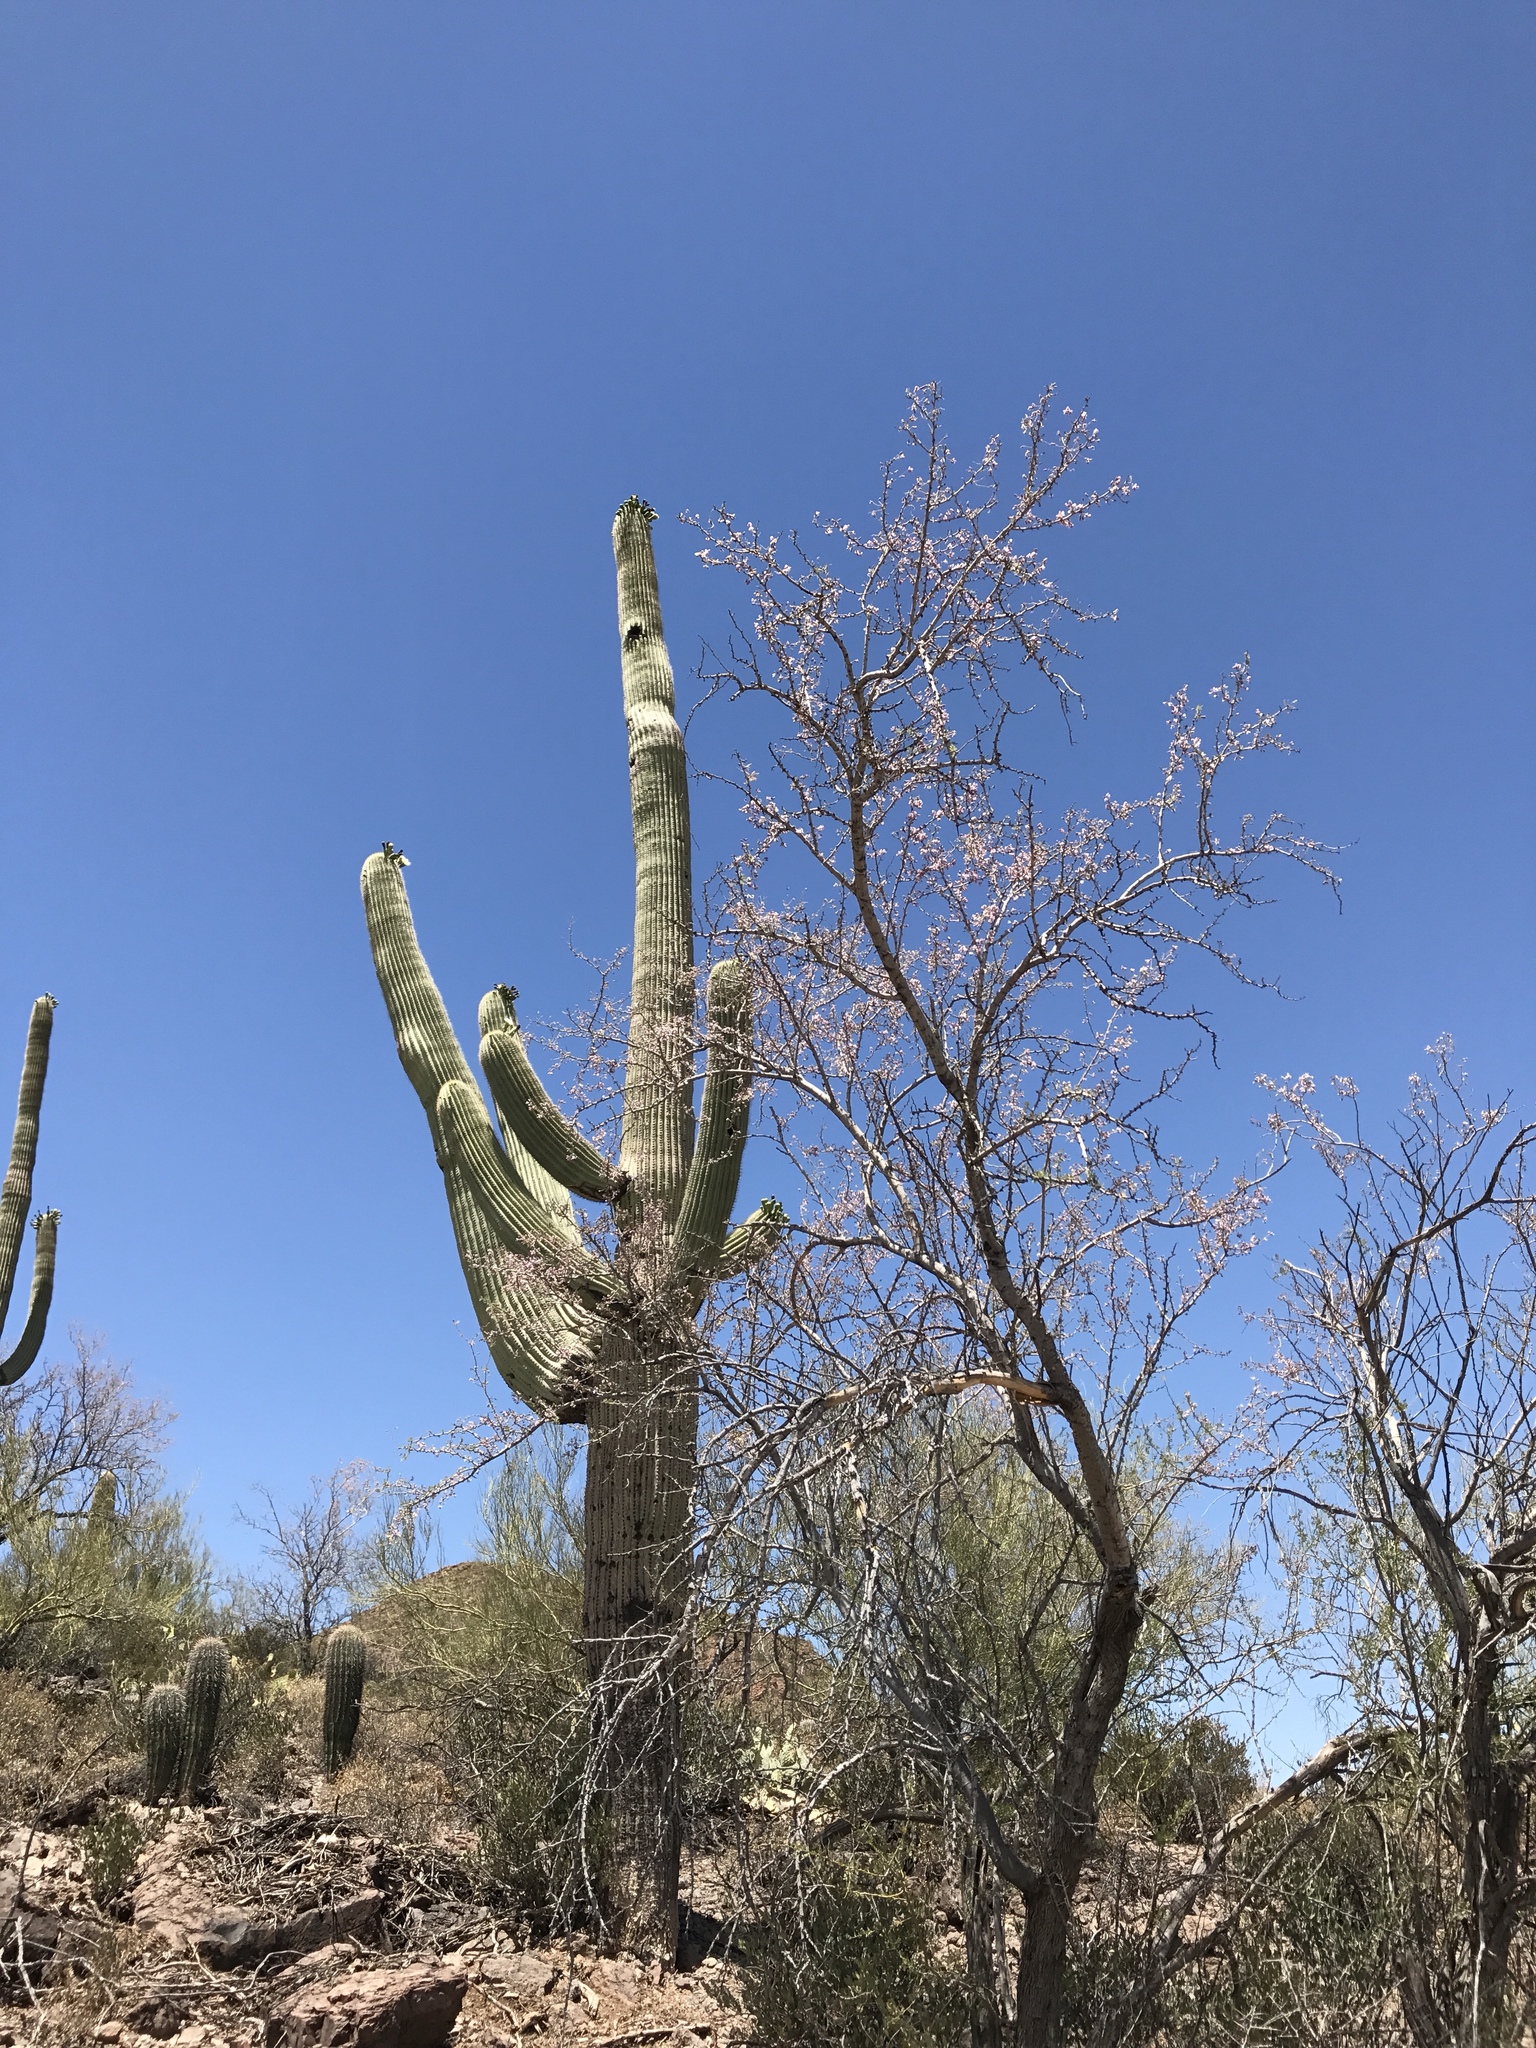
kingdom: Plantae
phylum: Tracheophyta
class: Magnoliopsida
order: Caryophyllales
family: Cactaceae
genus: Carnegiea
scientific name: Carnegiea gigantea
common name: Saguaro
